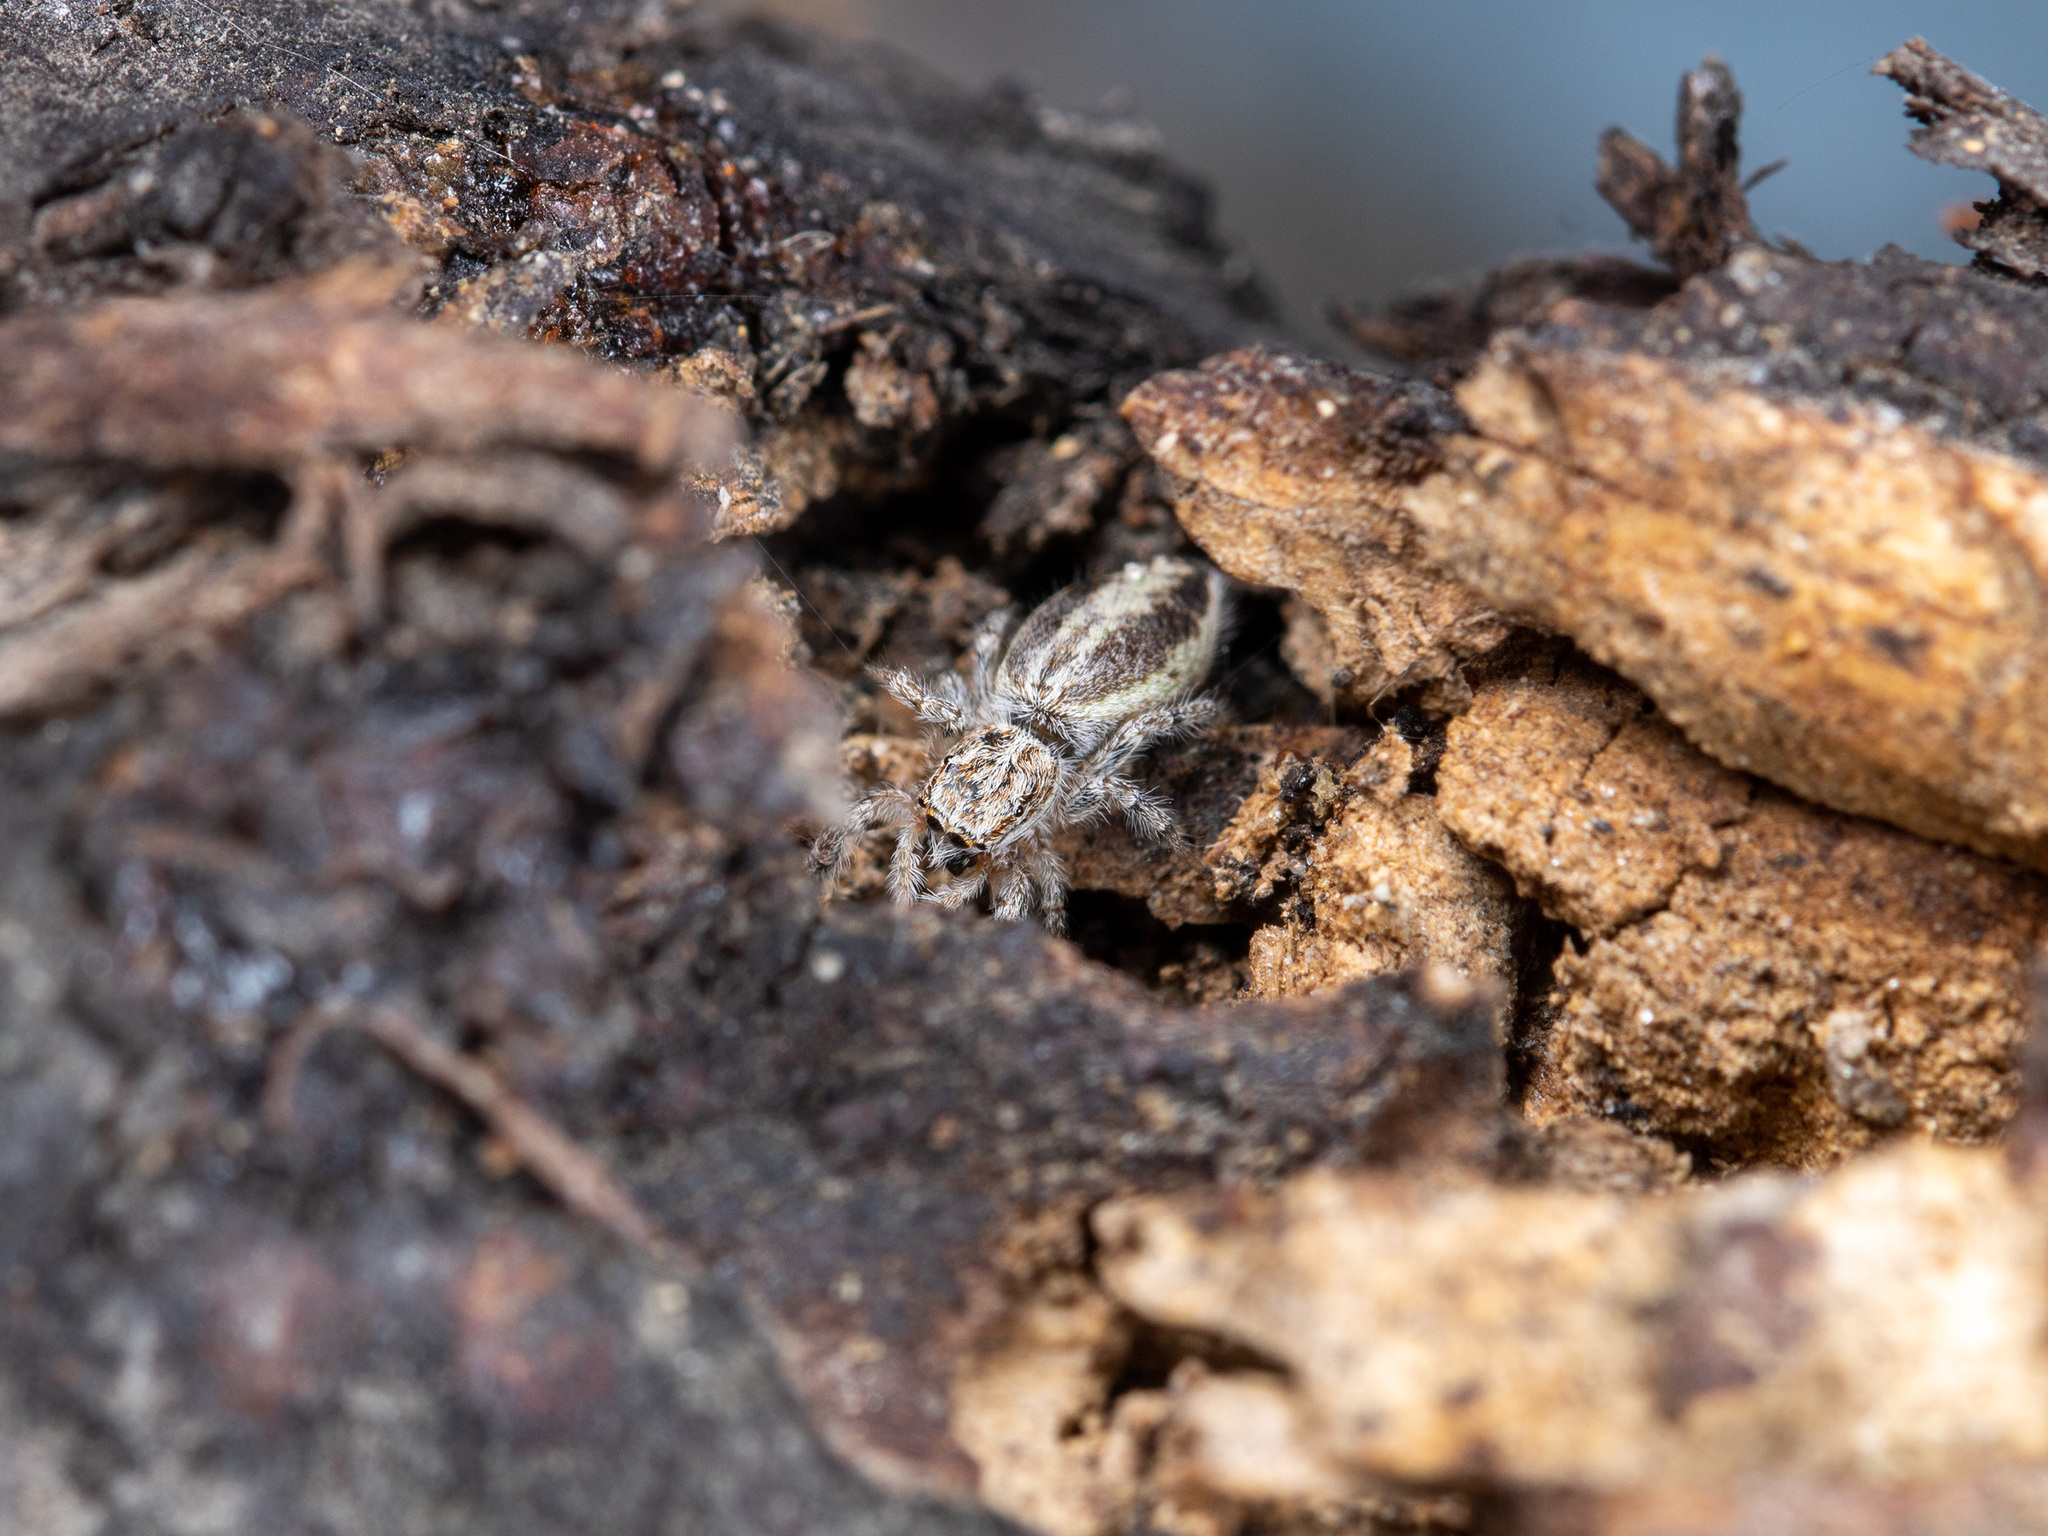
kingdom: Animalia
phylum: Arthropoda
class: Arachnida
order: Araneae
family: Salticidae
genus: Pseudicius
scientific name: Pseudicius courtauldi
